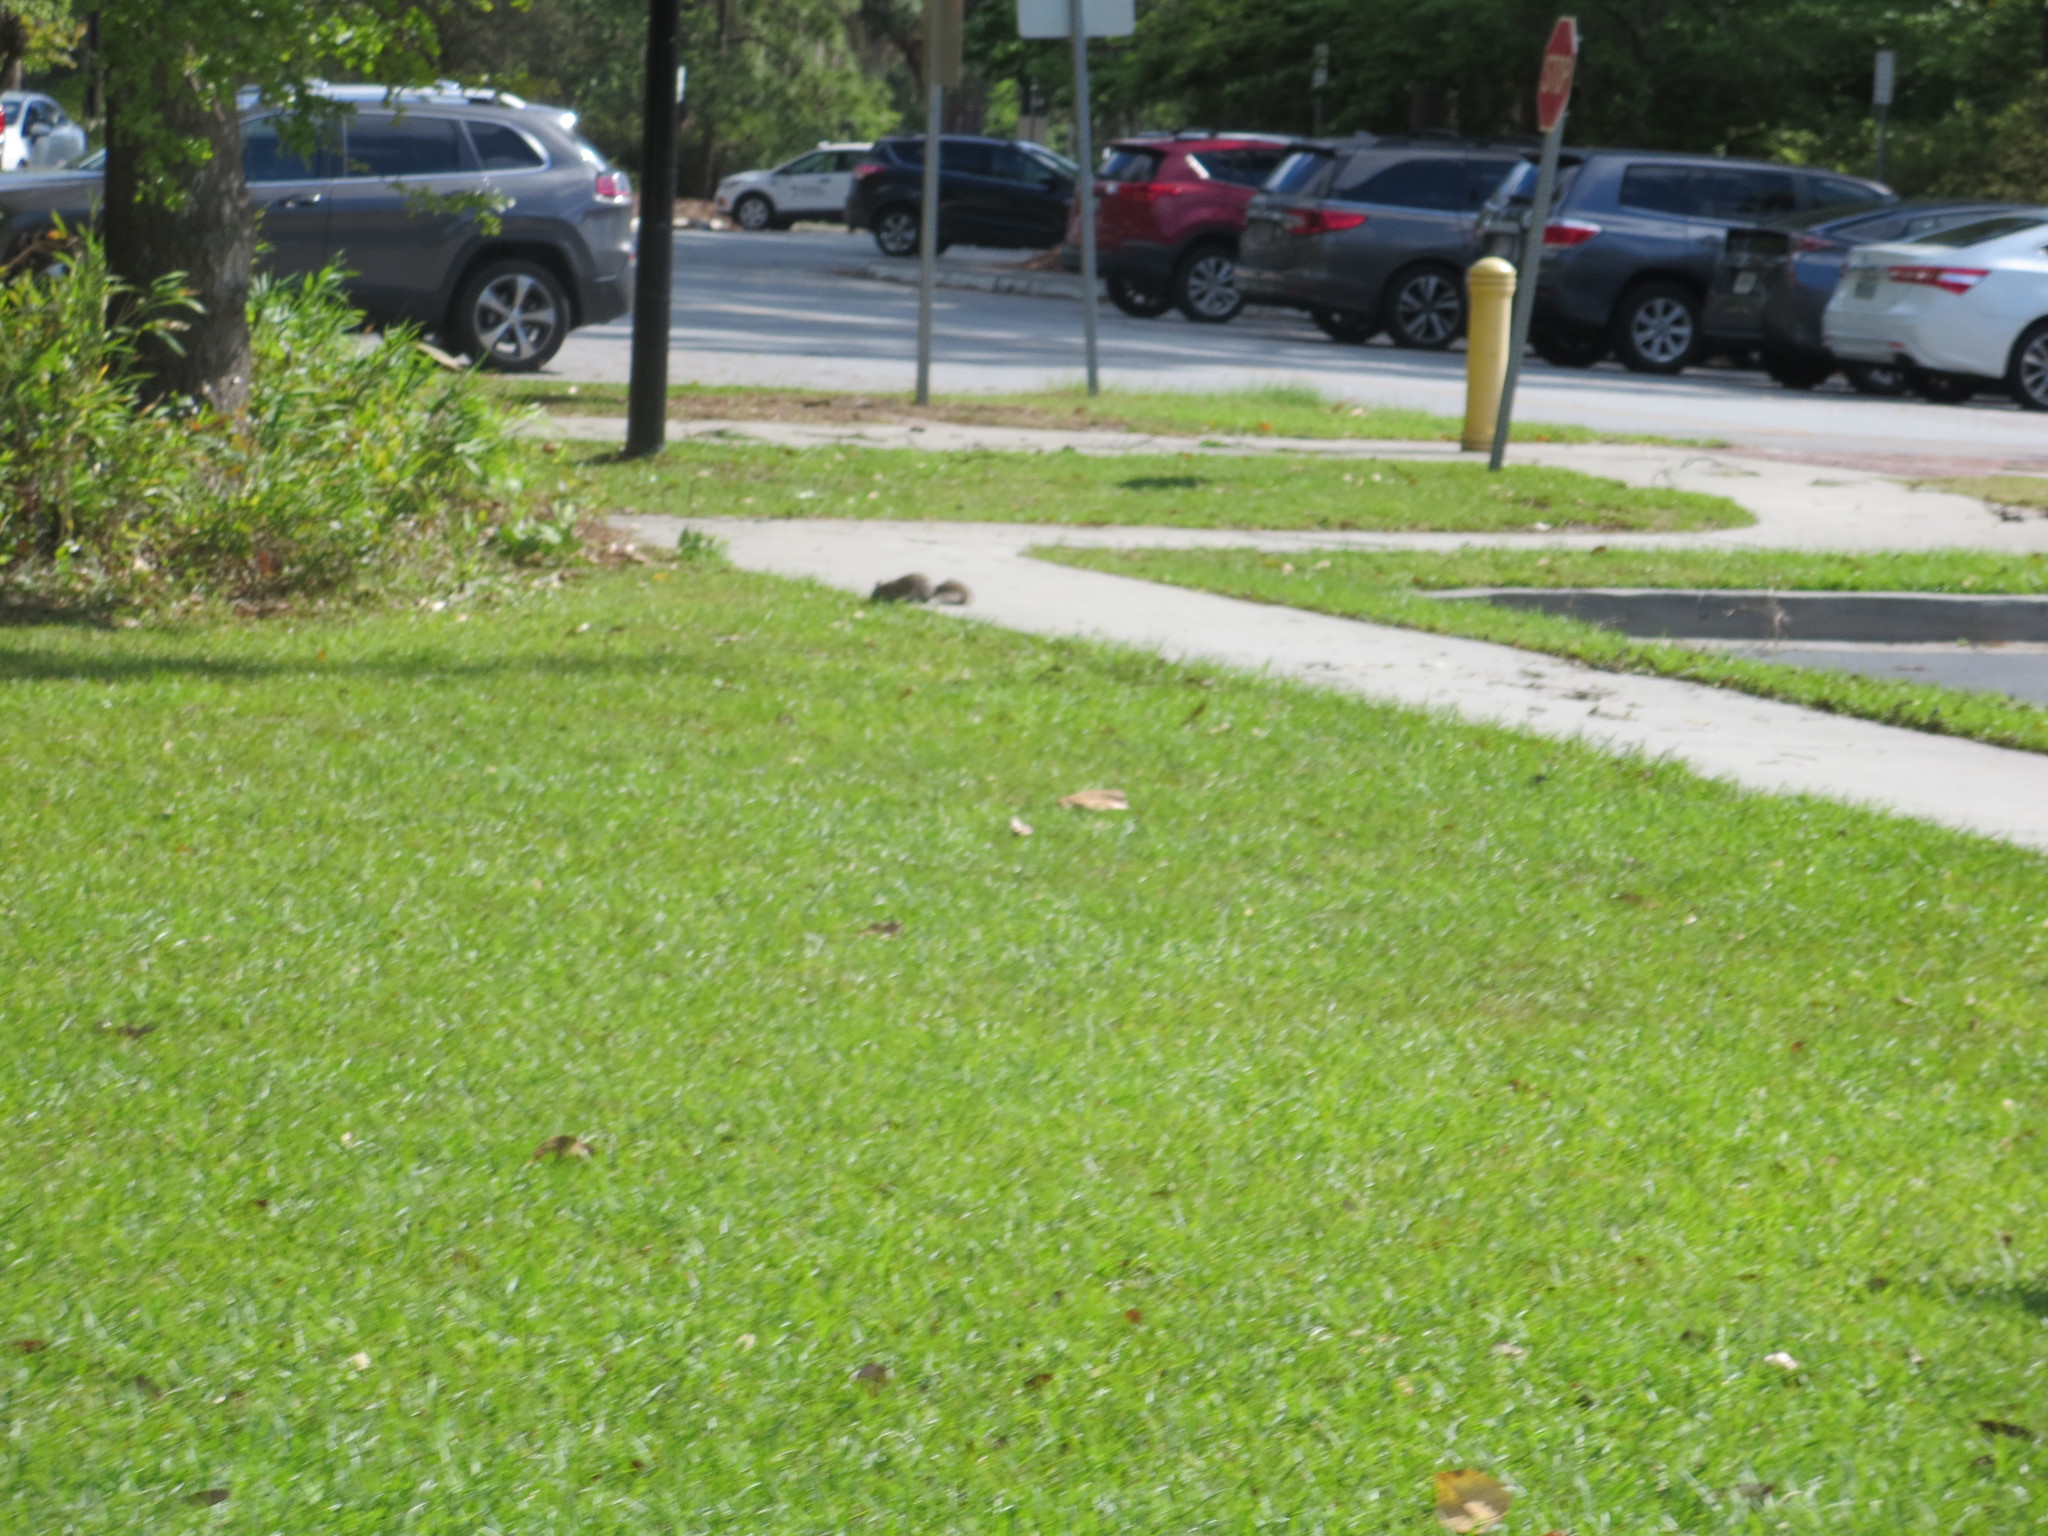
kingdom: Animalia
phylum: Chordata
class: Mammalia
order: Rodentia
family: Sciuridae
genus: Sciurus
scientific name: Sciurus carolinensis
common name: Eastern gray squirrel
